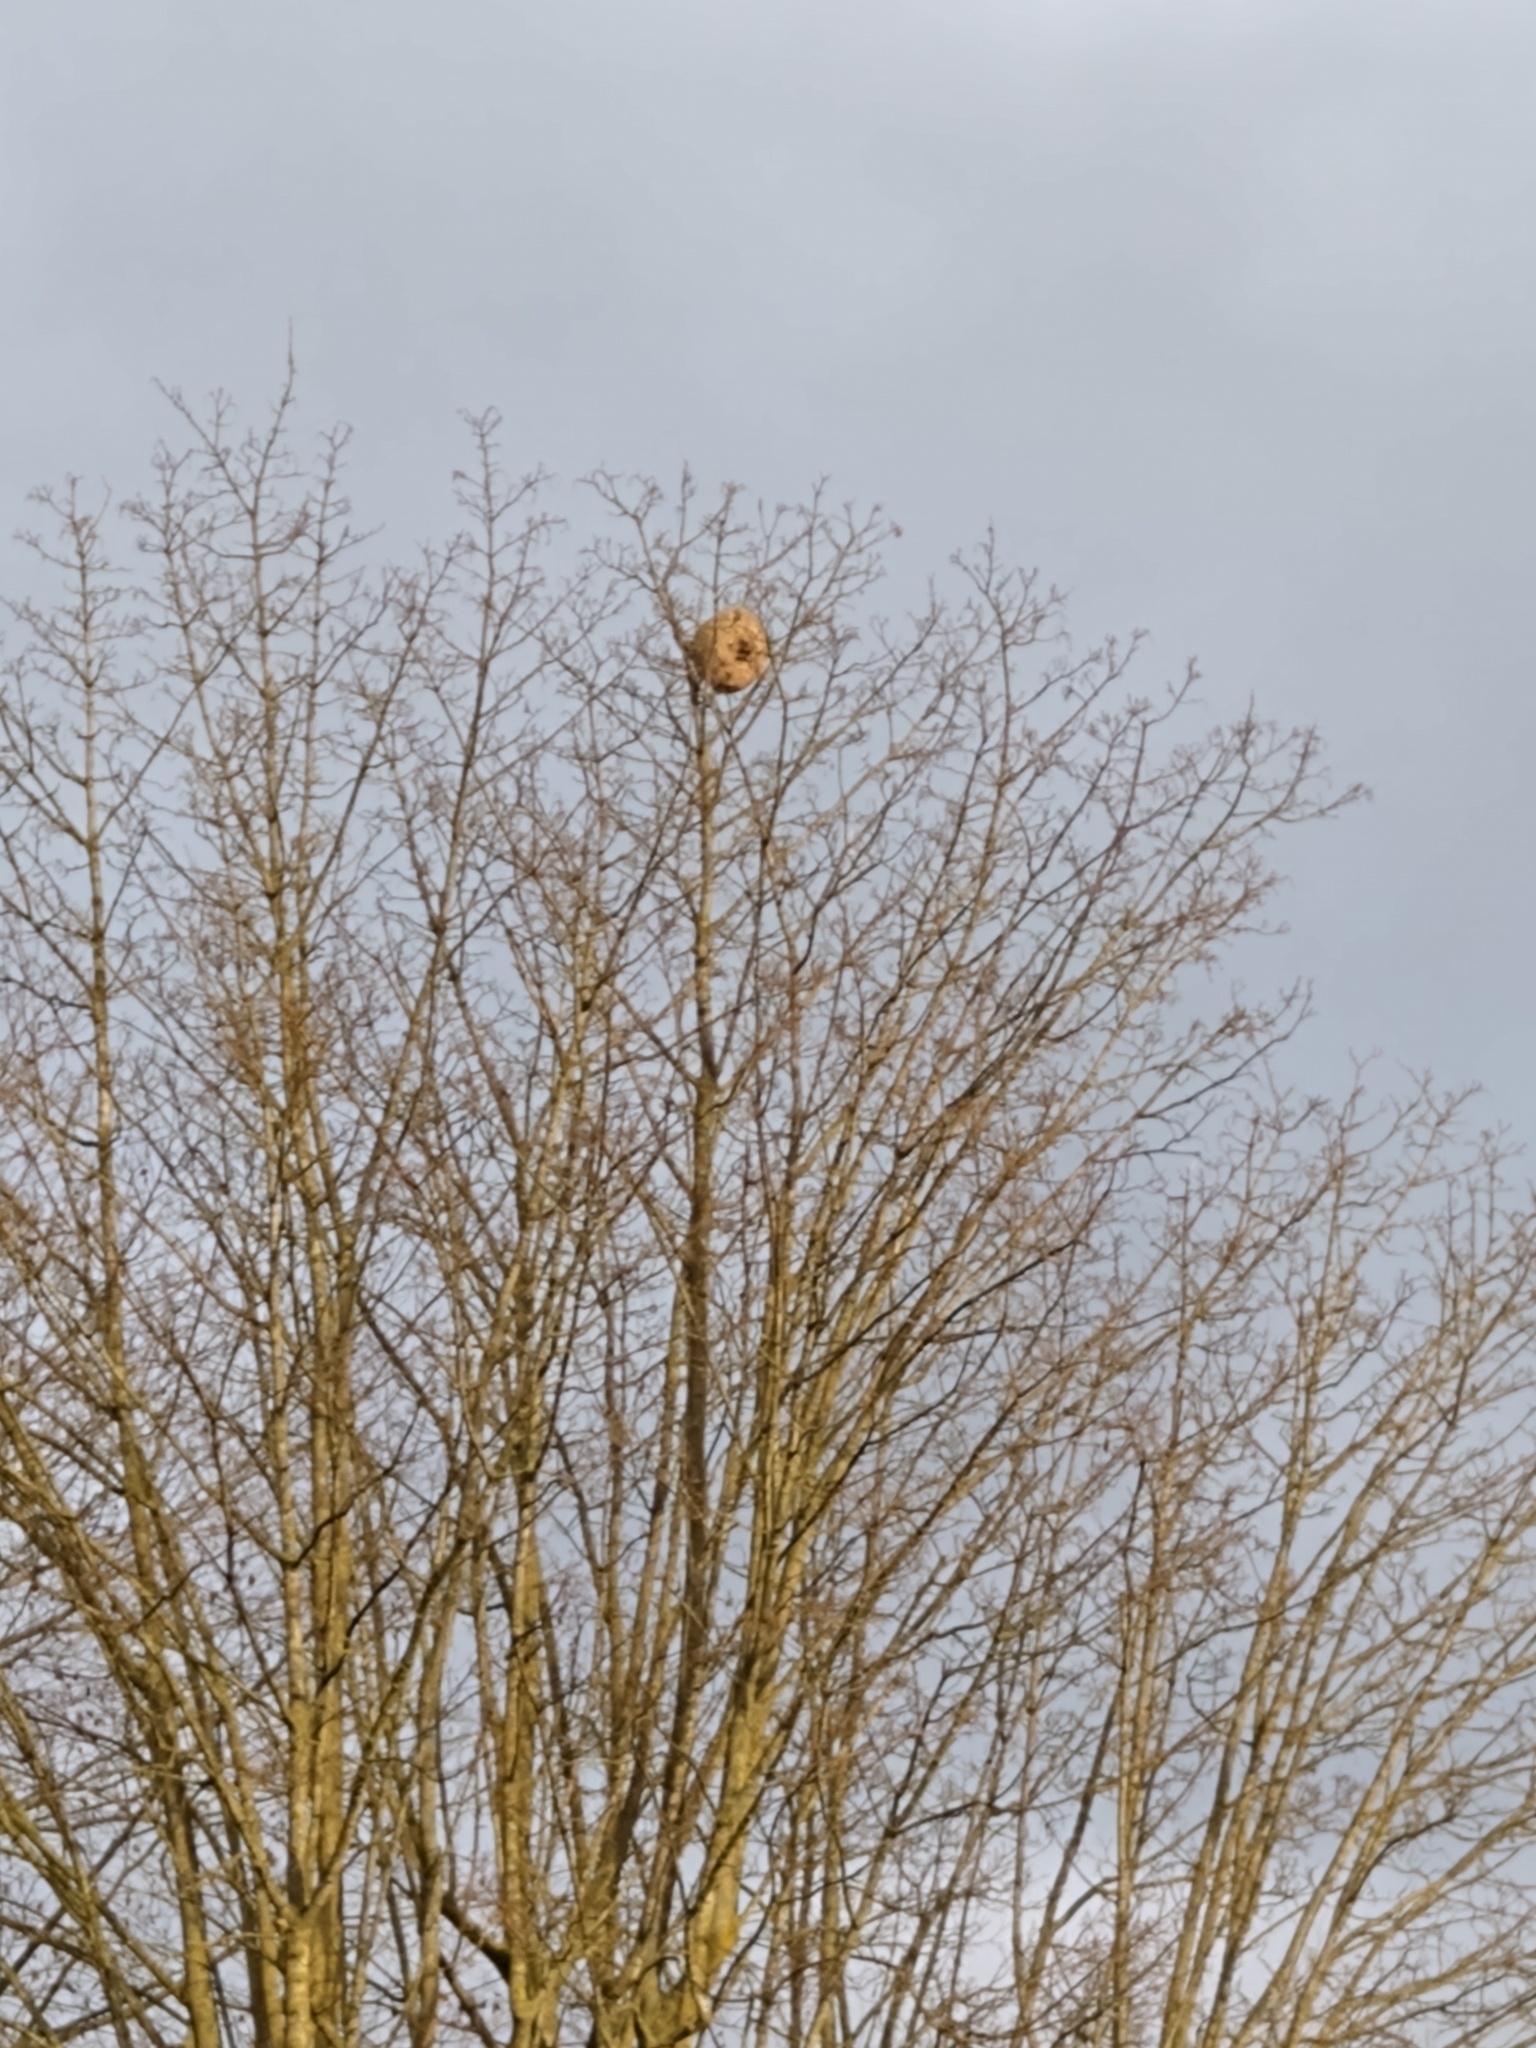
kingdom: Animalia
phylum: Arthropoda
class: Insecta
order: Hymenoptera
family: Vespidae
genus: Vespa
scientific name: Vespa velutina
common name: Asian hornet
